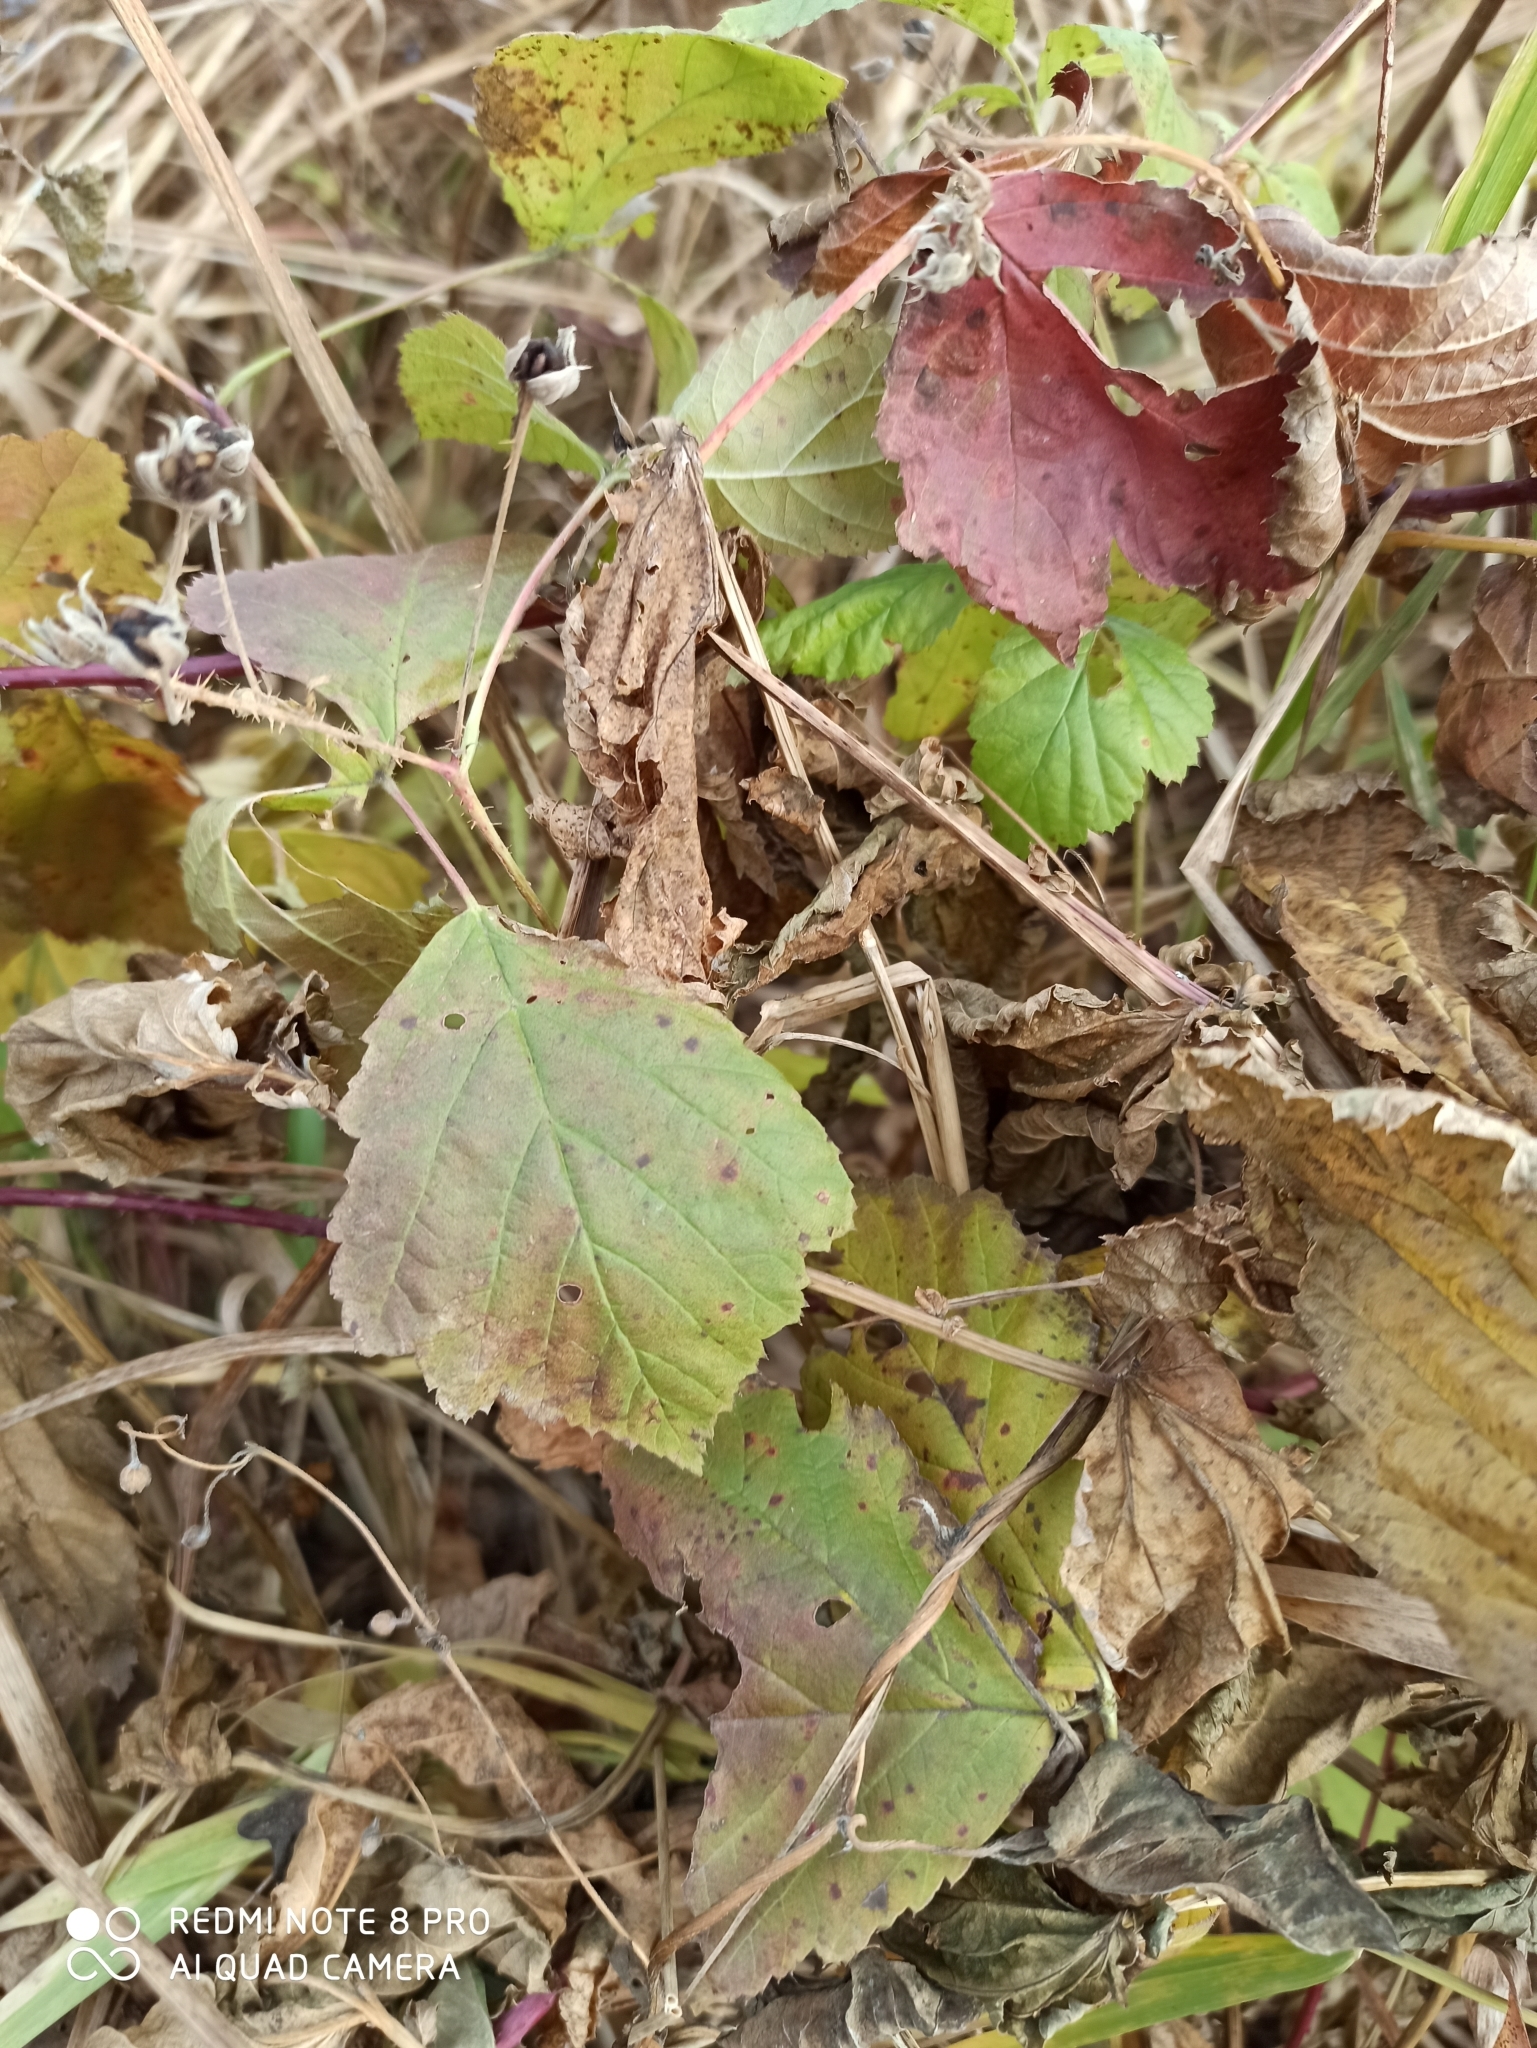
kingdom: Plantae
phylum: Tracheophyta
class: Magnoliopsida
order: Rosales
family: Rosaceae
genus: Rubus
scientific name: Rubus caesius
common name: Dewberry
